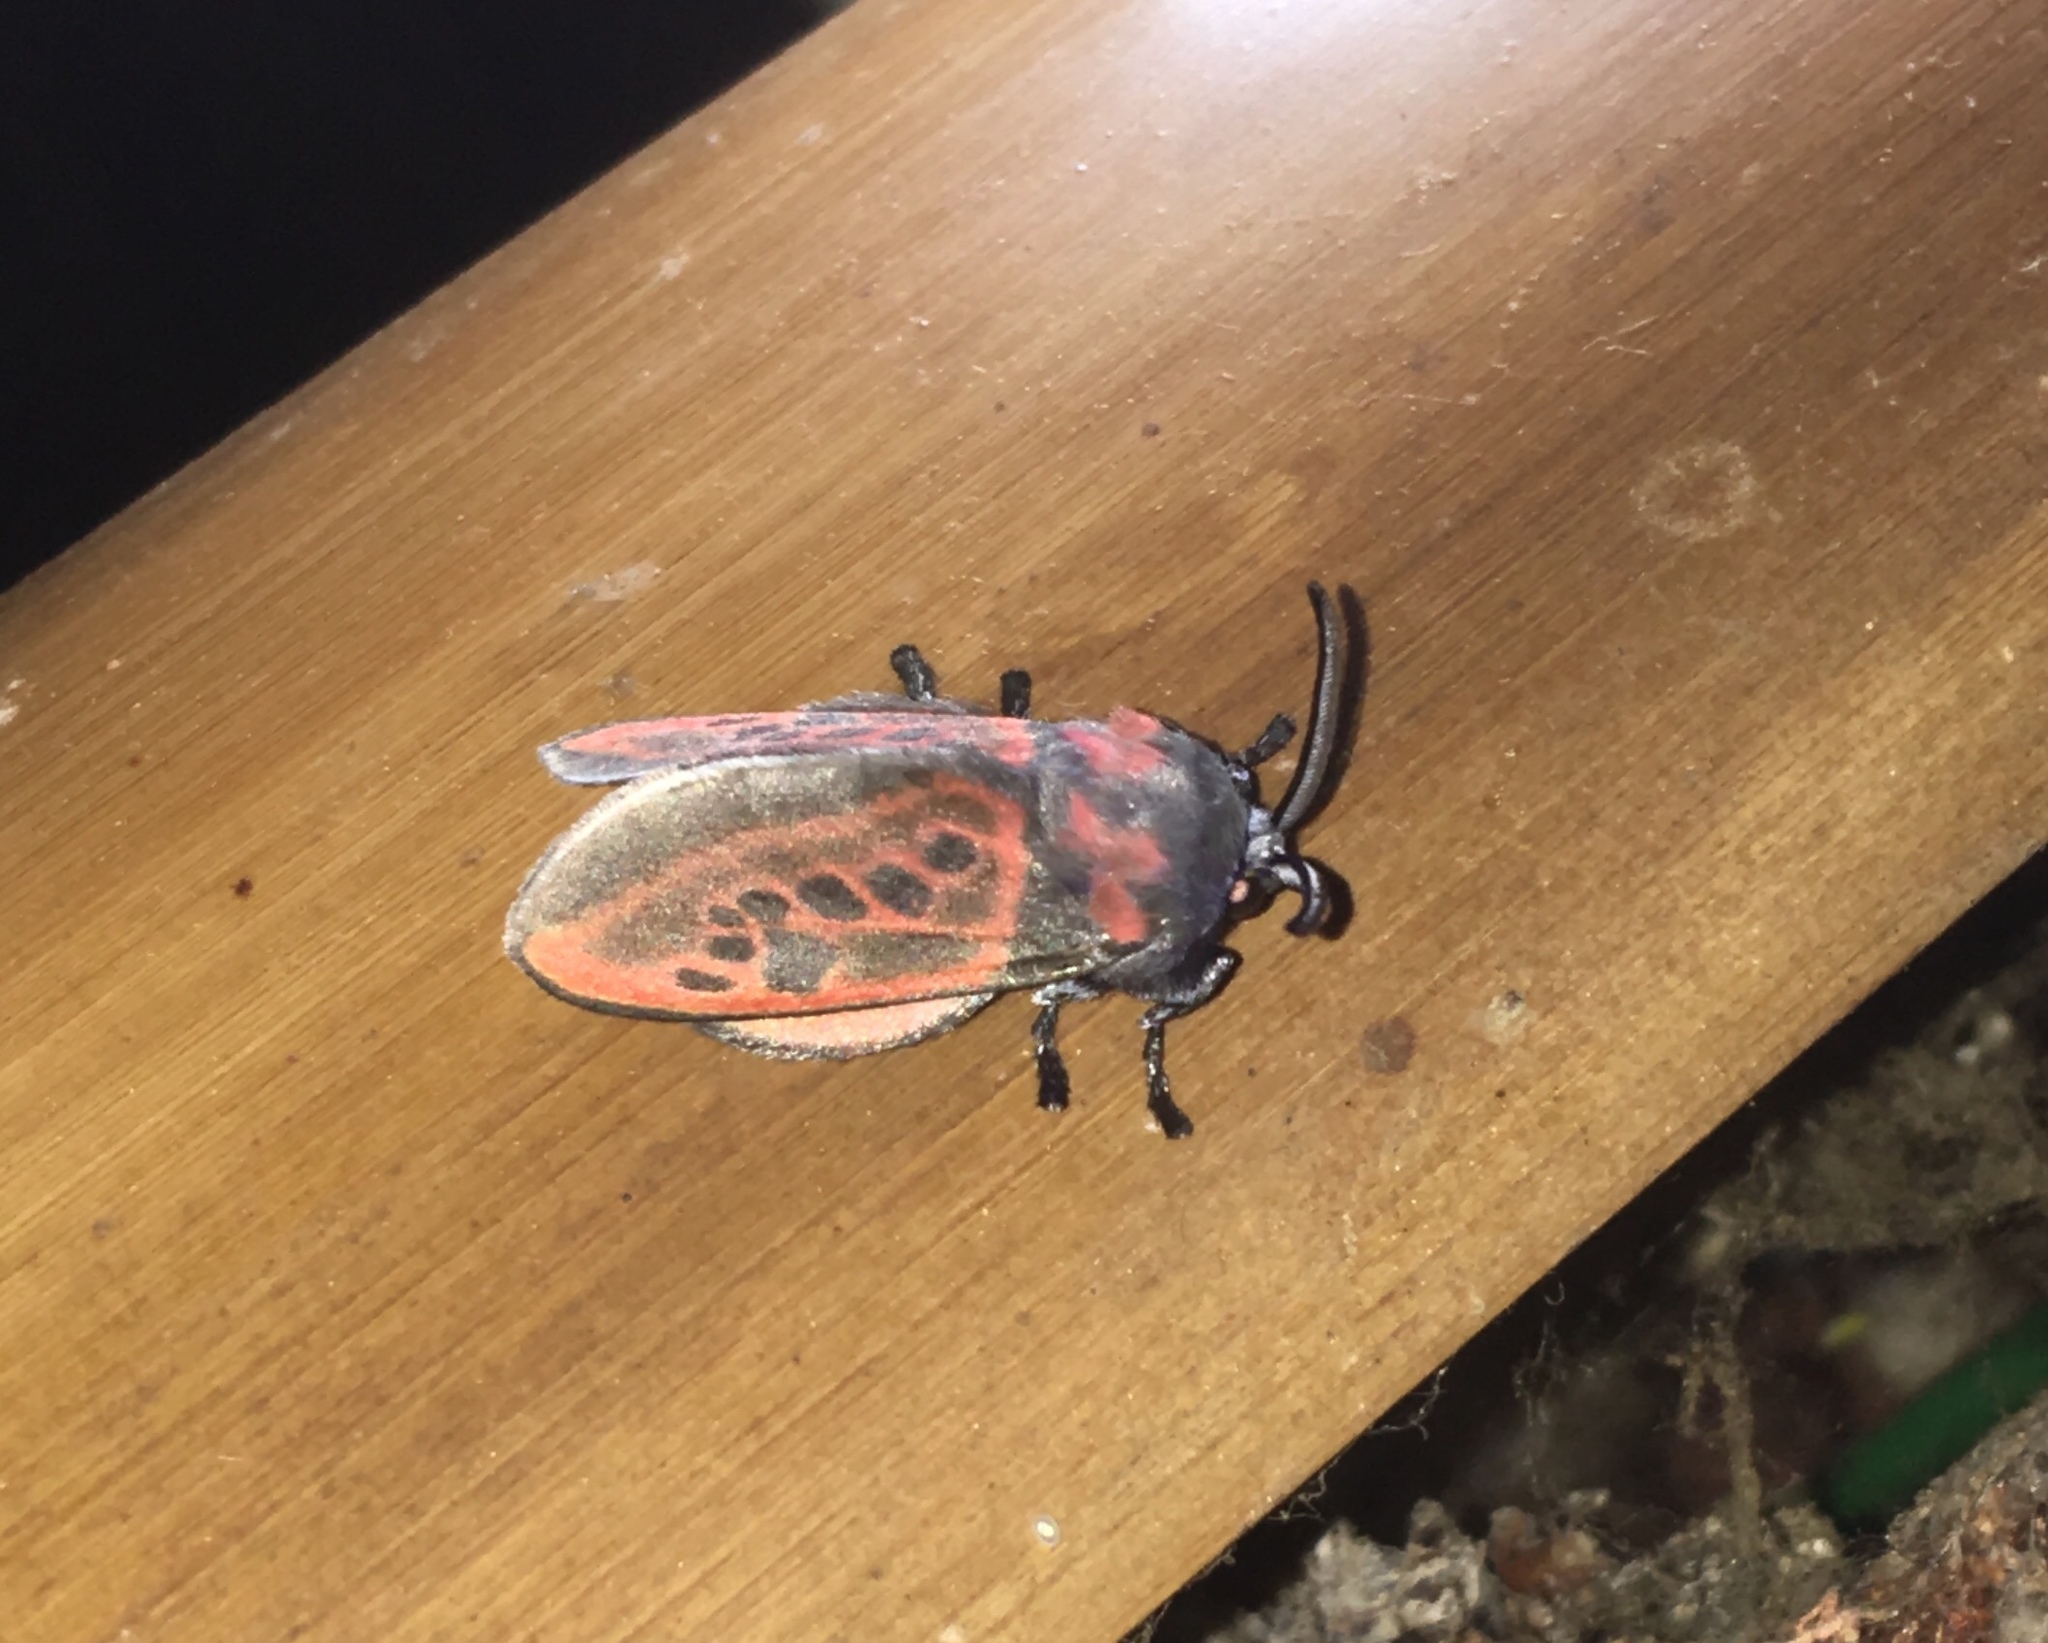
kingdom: Animalia
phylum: Arthropoda
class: Insecta
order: Lepidoptera
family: Megalopygidae
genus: Langucys
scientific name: Langucys nigropuncta
